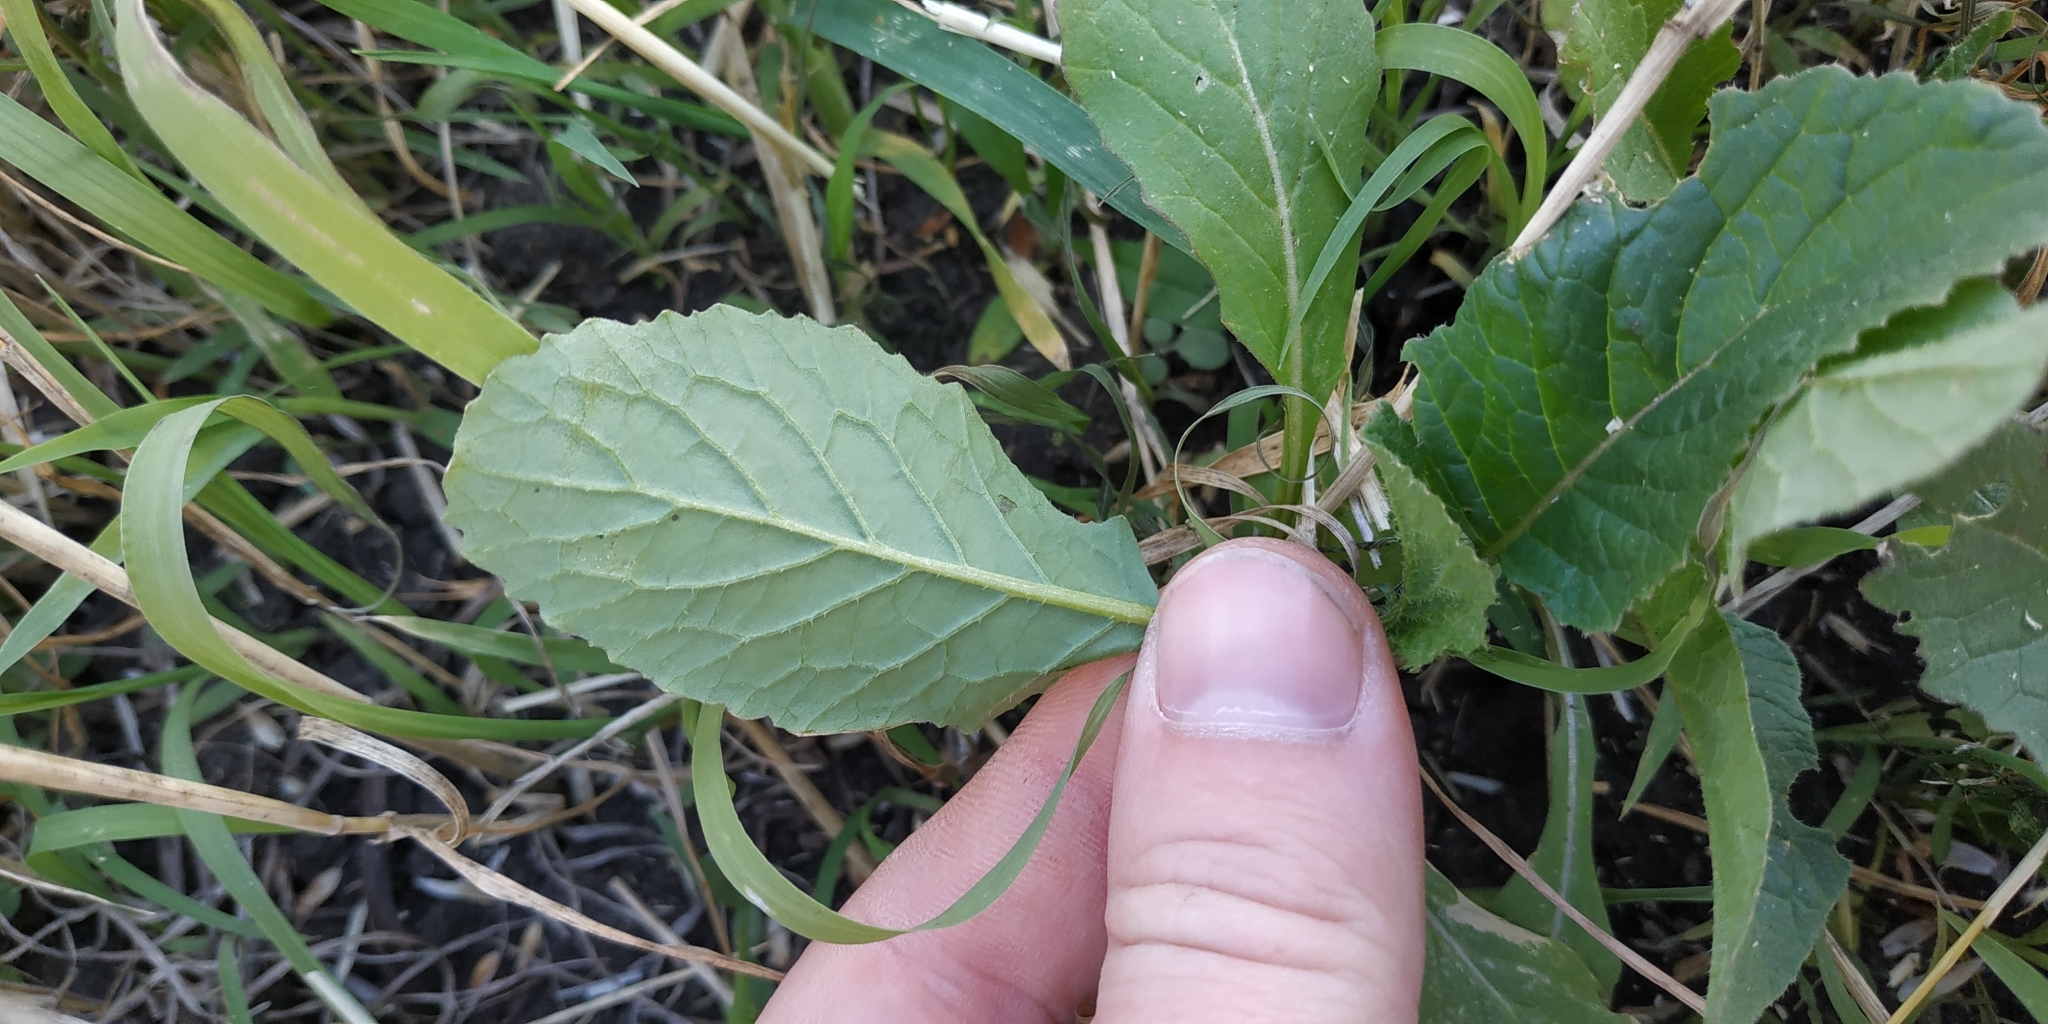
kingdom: Plantae
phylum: Tracheophyta
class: Magnoliopsida
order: Brassicales
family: Brassicaceae
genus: Sinapis
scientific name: Sinapis arvensis
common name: Charlock
